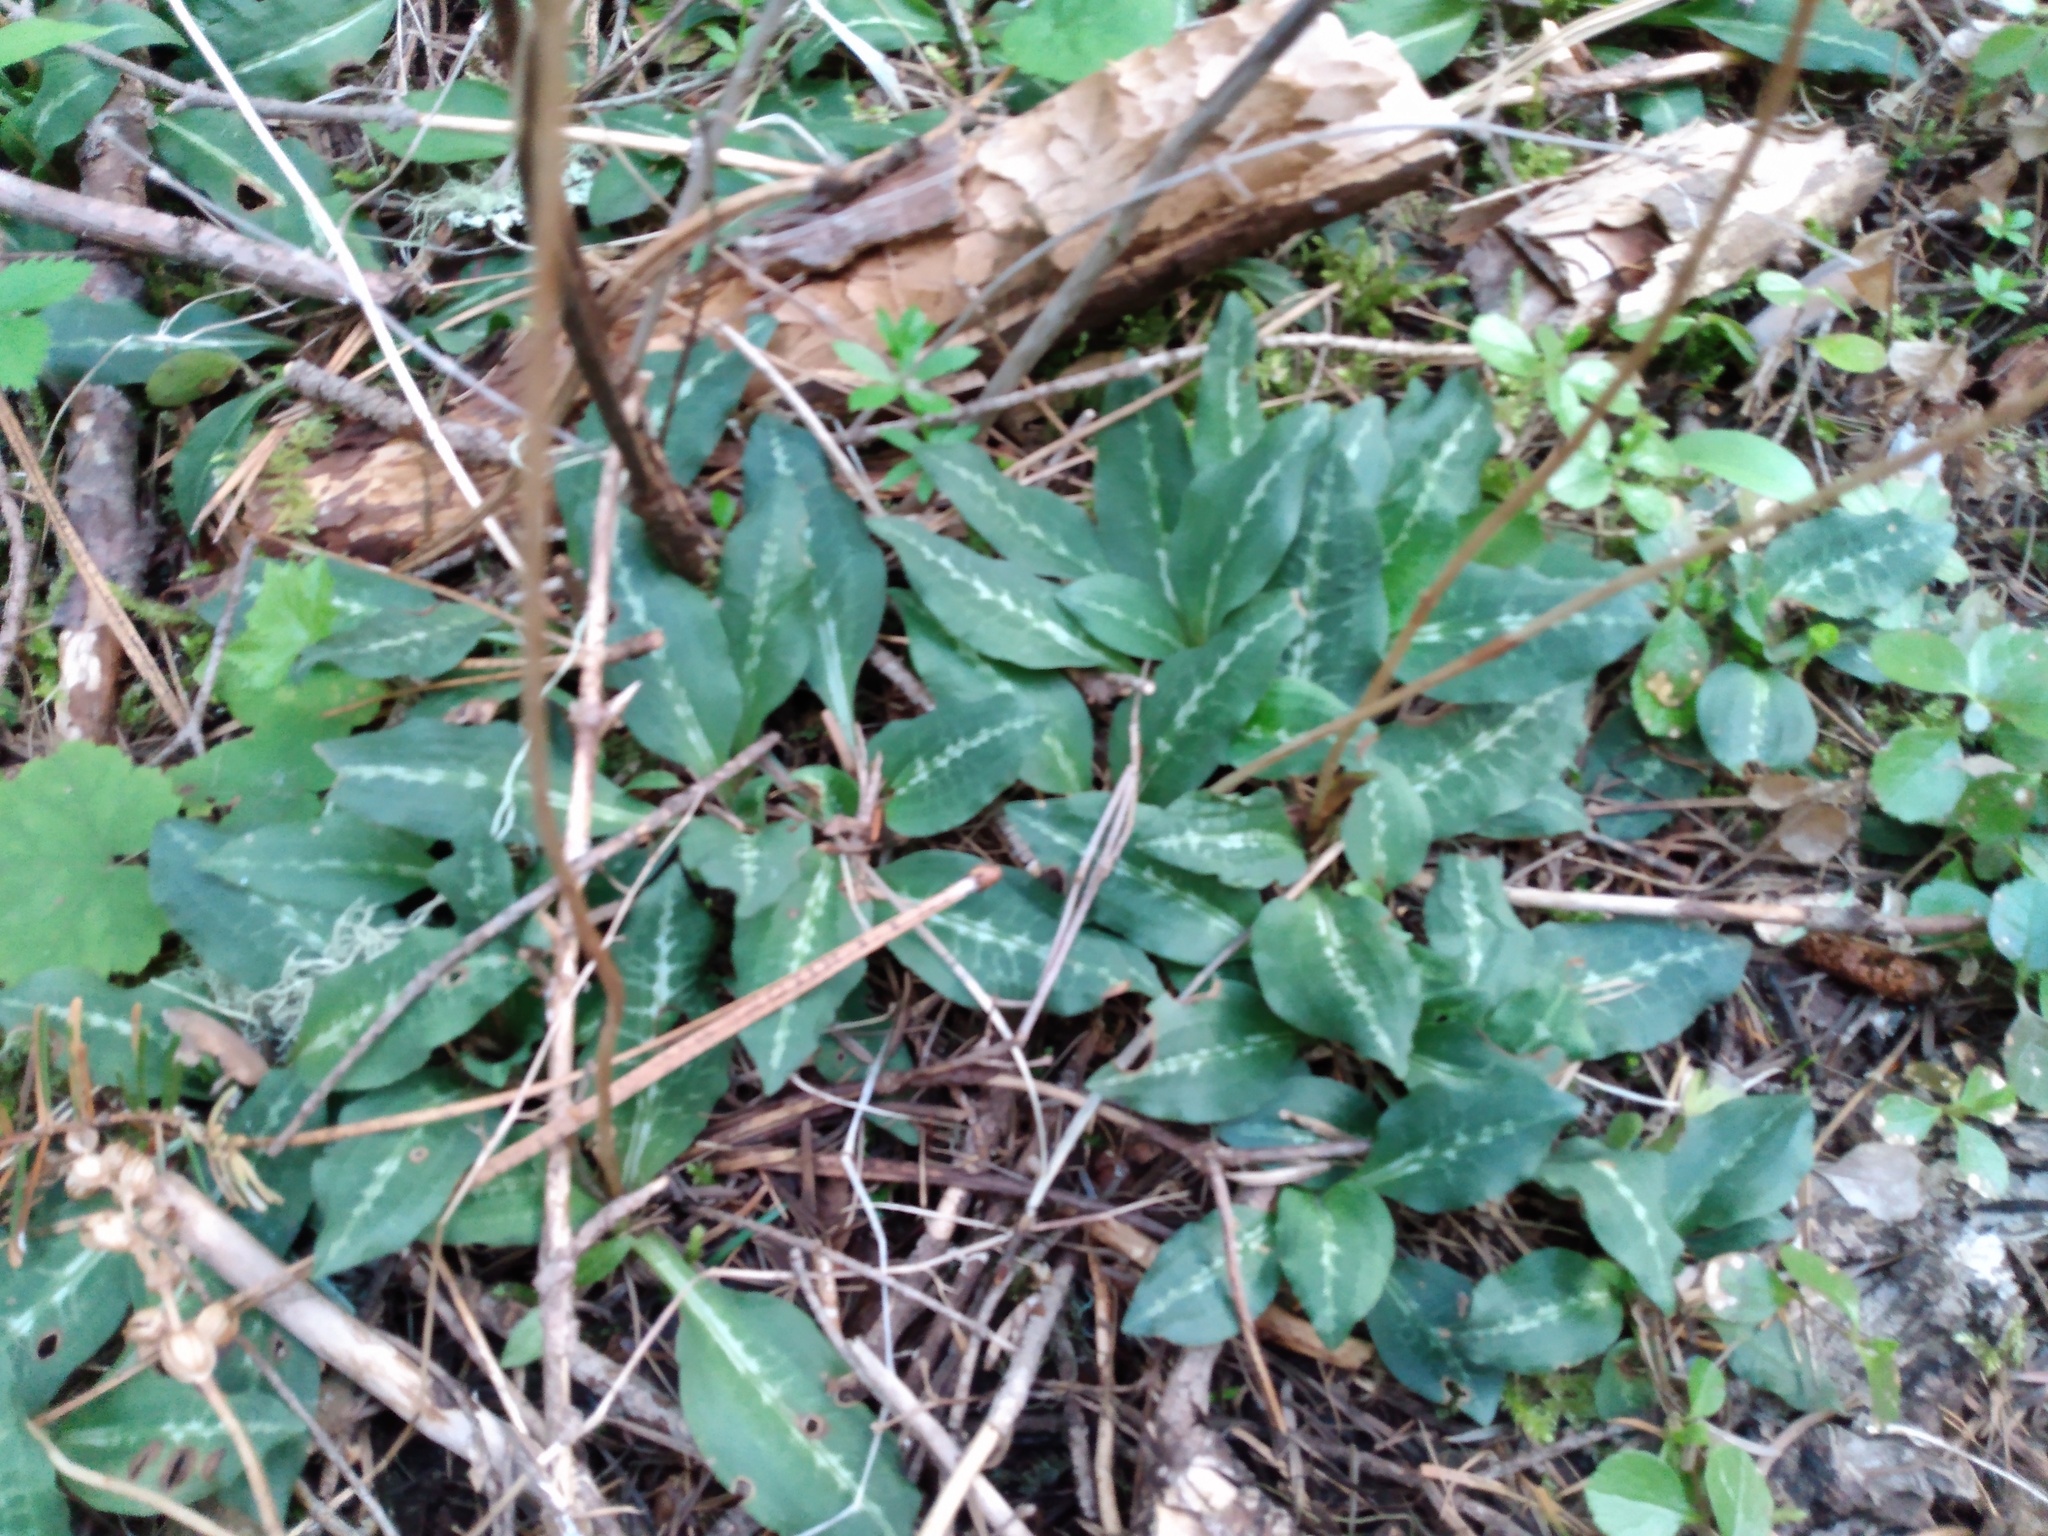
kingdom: Plantae
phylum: Tracheophyta
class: Liliopsida
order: Asparagales
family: Orchidaceae
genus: Goodyera
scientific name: Goodyera oblongifolia
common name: Giant rattlesnake-plantain
